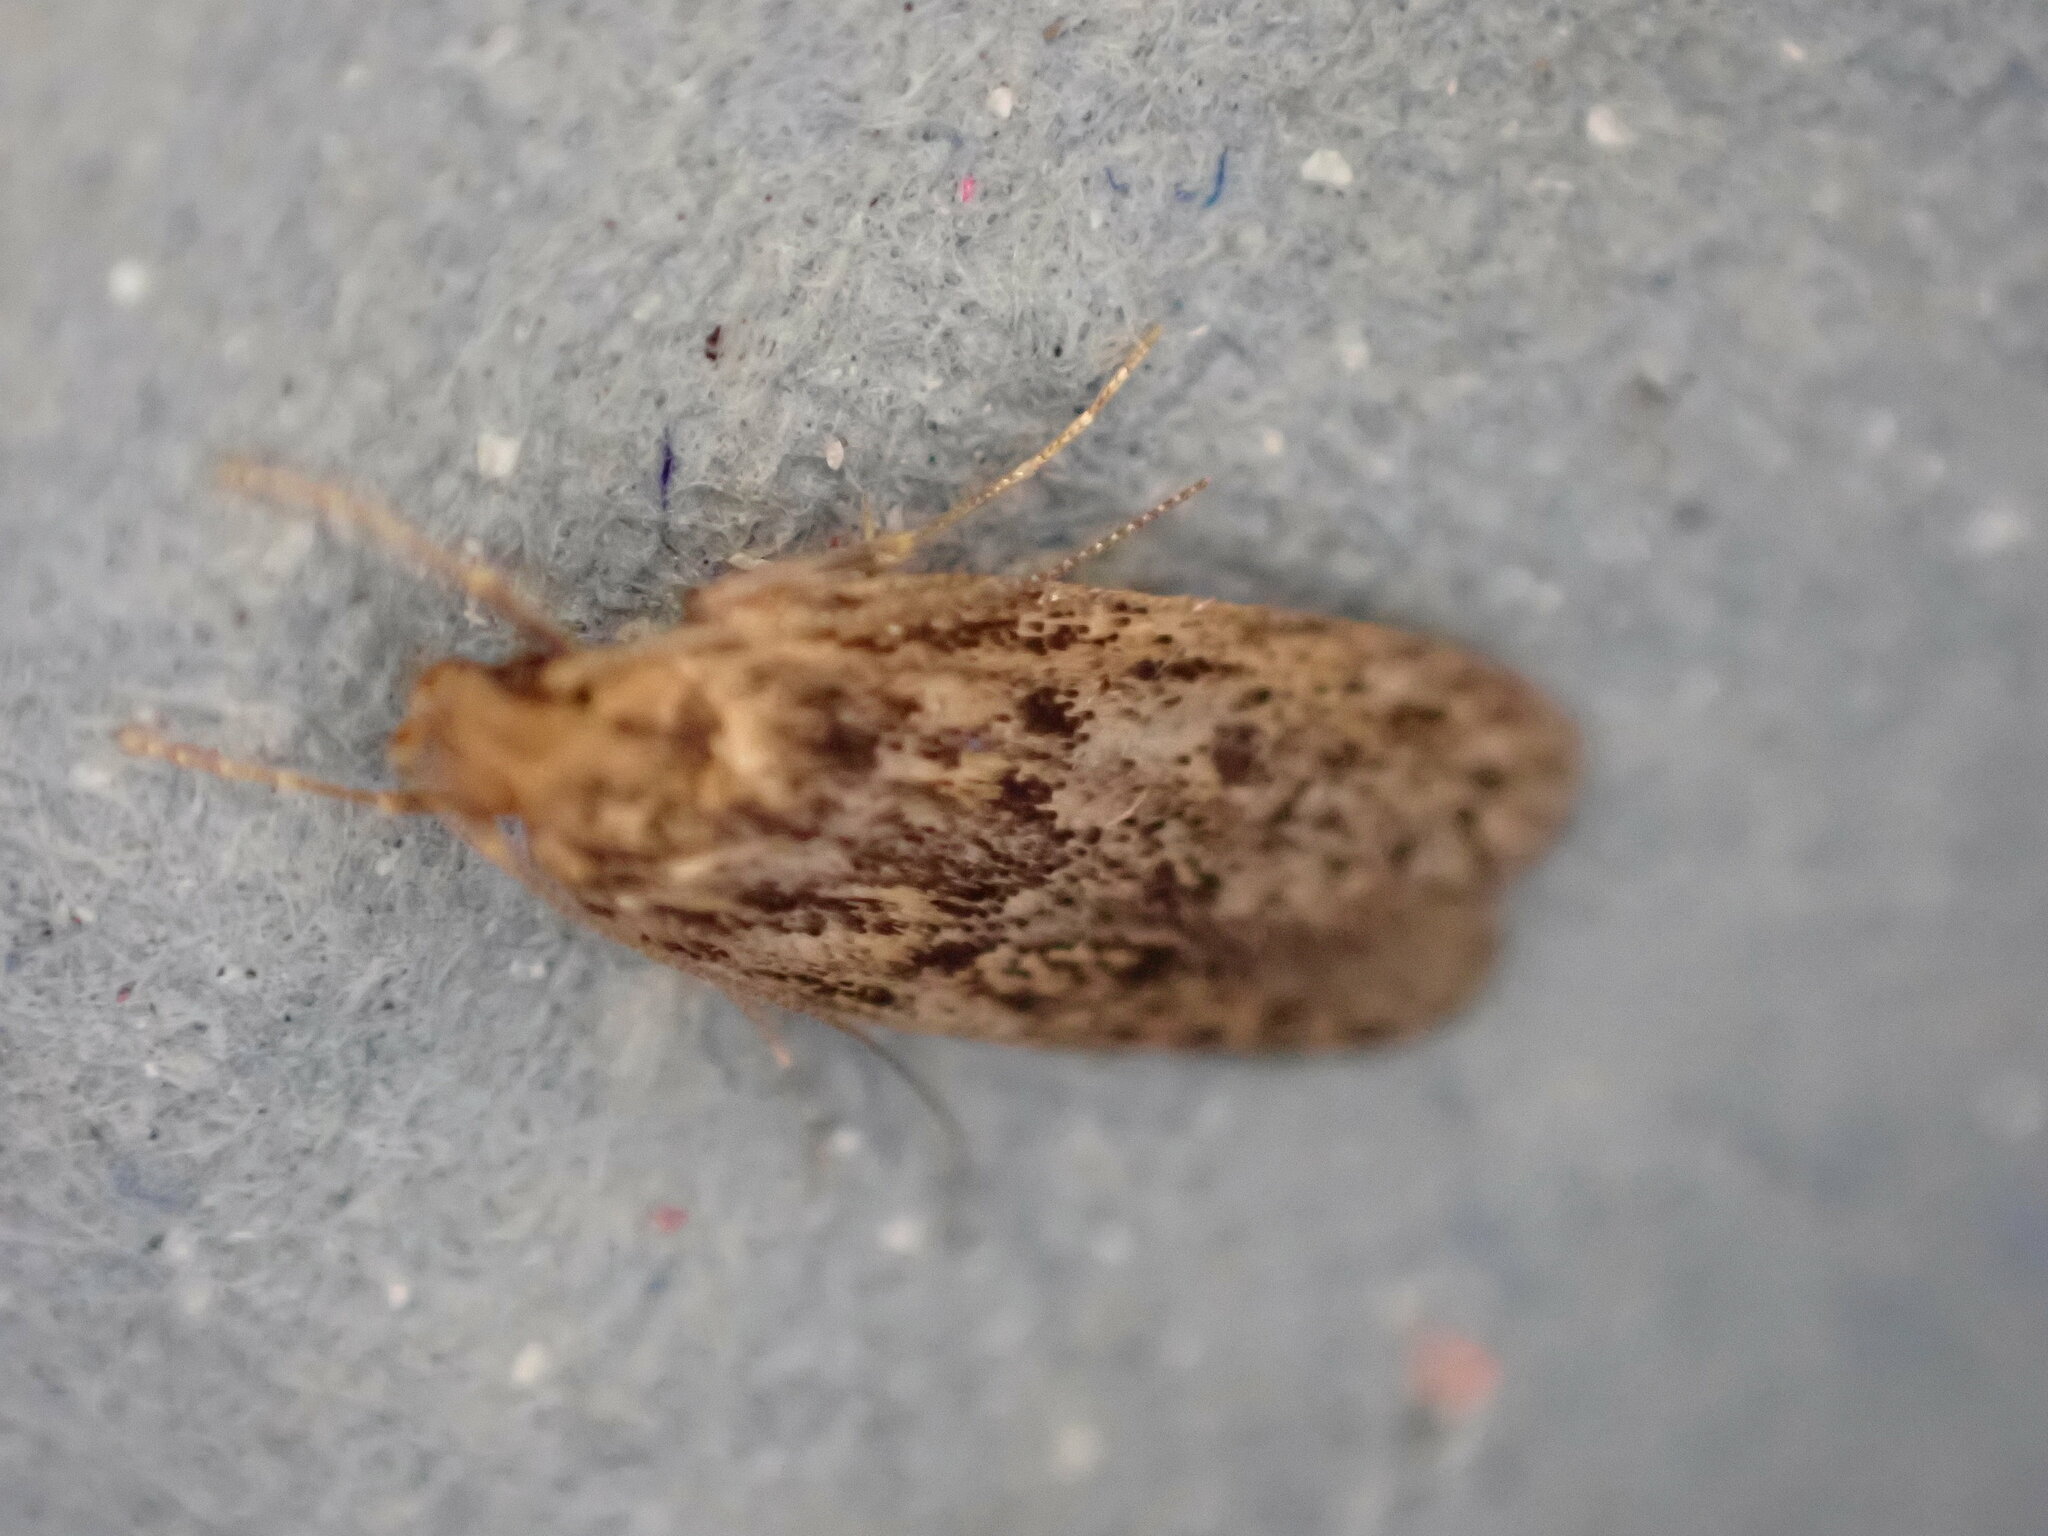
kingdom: Animalia
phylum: Arthropoda
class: Insecta
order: Lepidoptera
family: Oecophoridae
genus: Hofmannophila
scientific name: Hofmannophila pseudospretella
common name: Brown house moth
